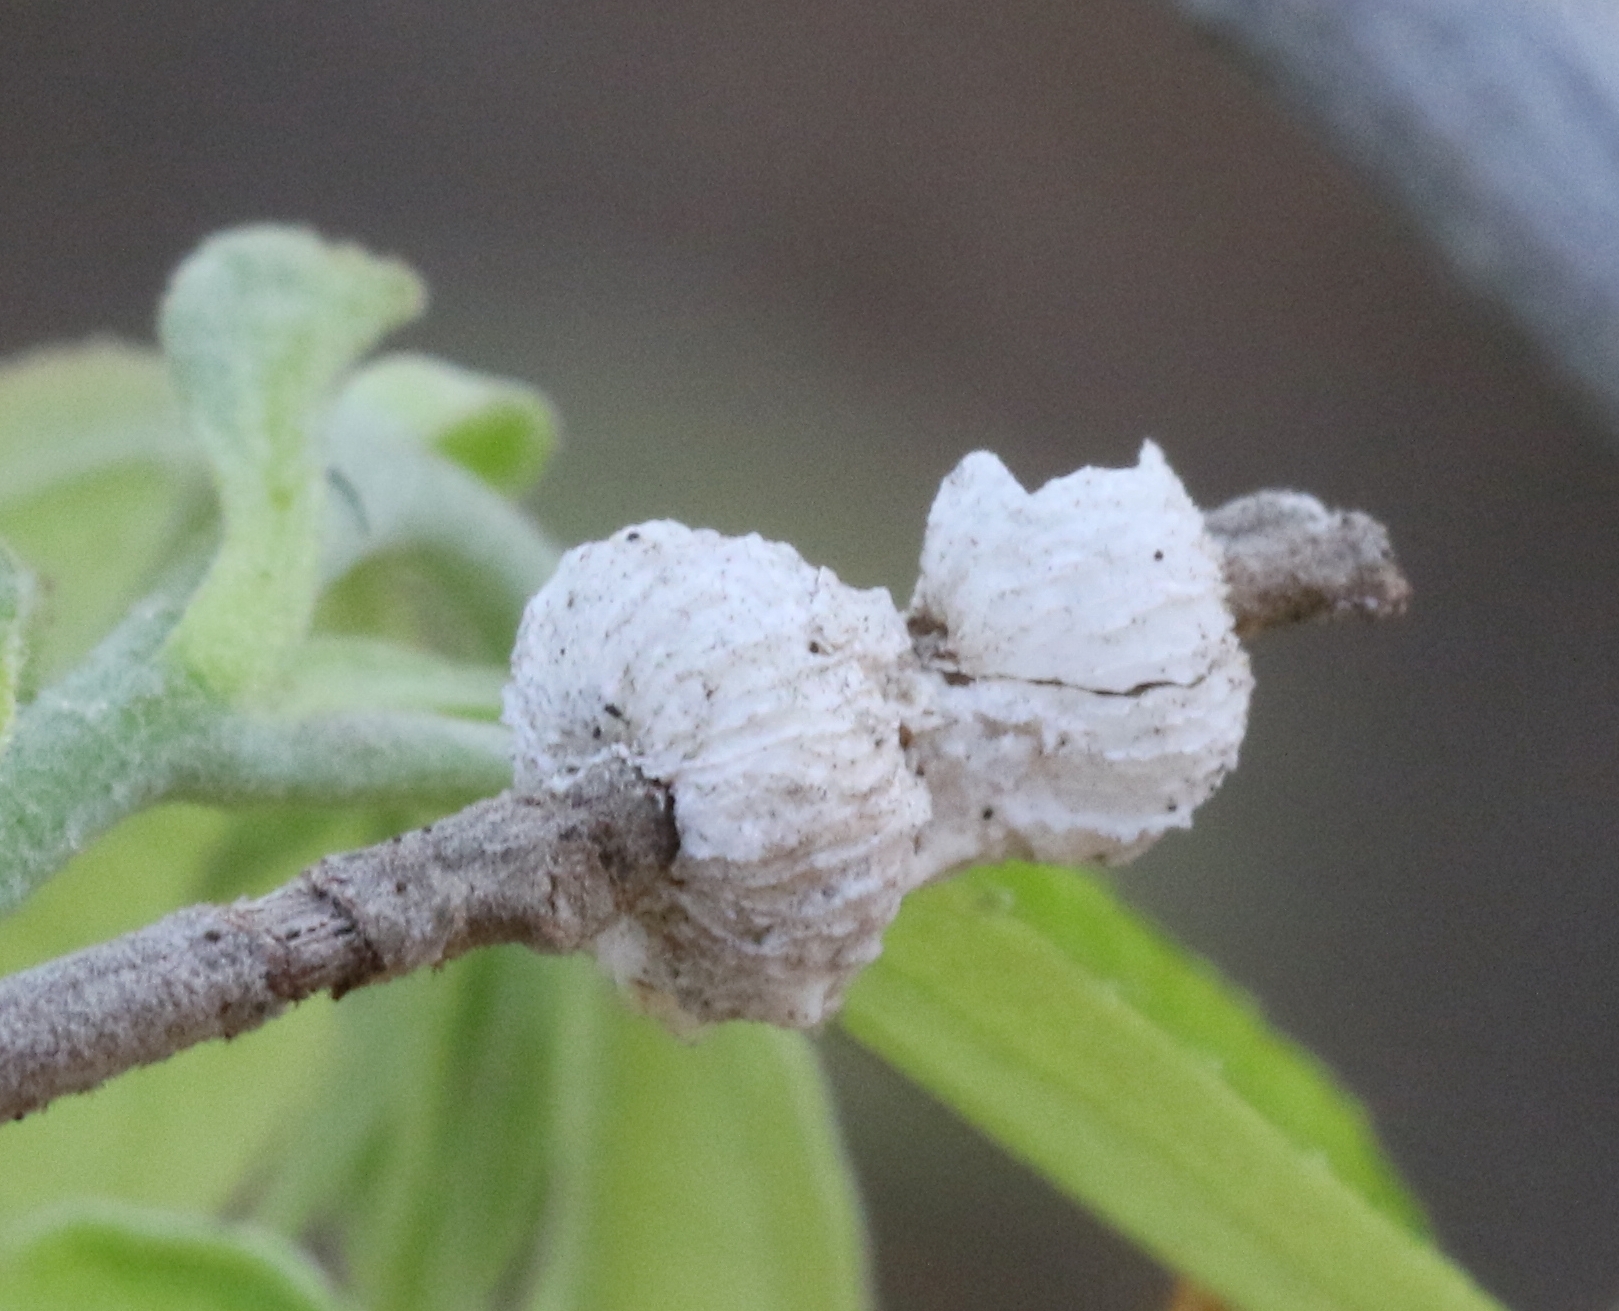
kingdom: Plantae
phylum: Tracheophyta
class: Magnoliopsida
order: Malvales
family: Malvaceae
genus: Grewia
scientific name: Grewia bicolor
